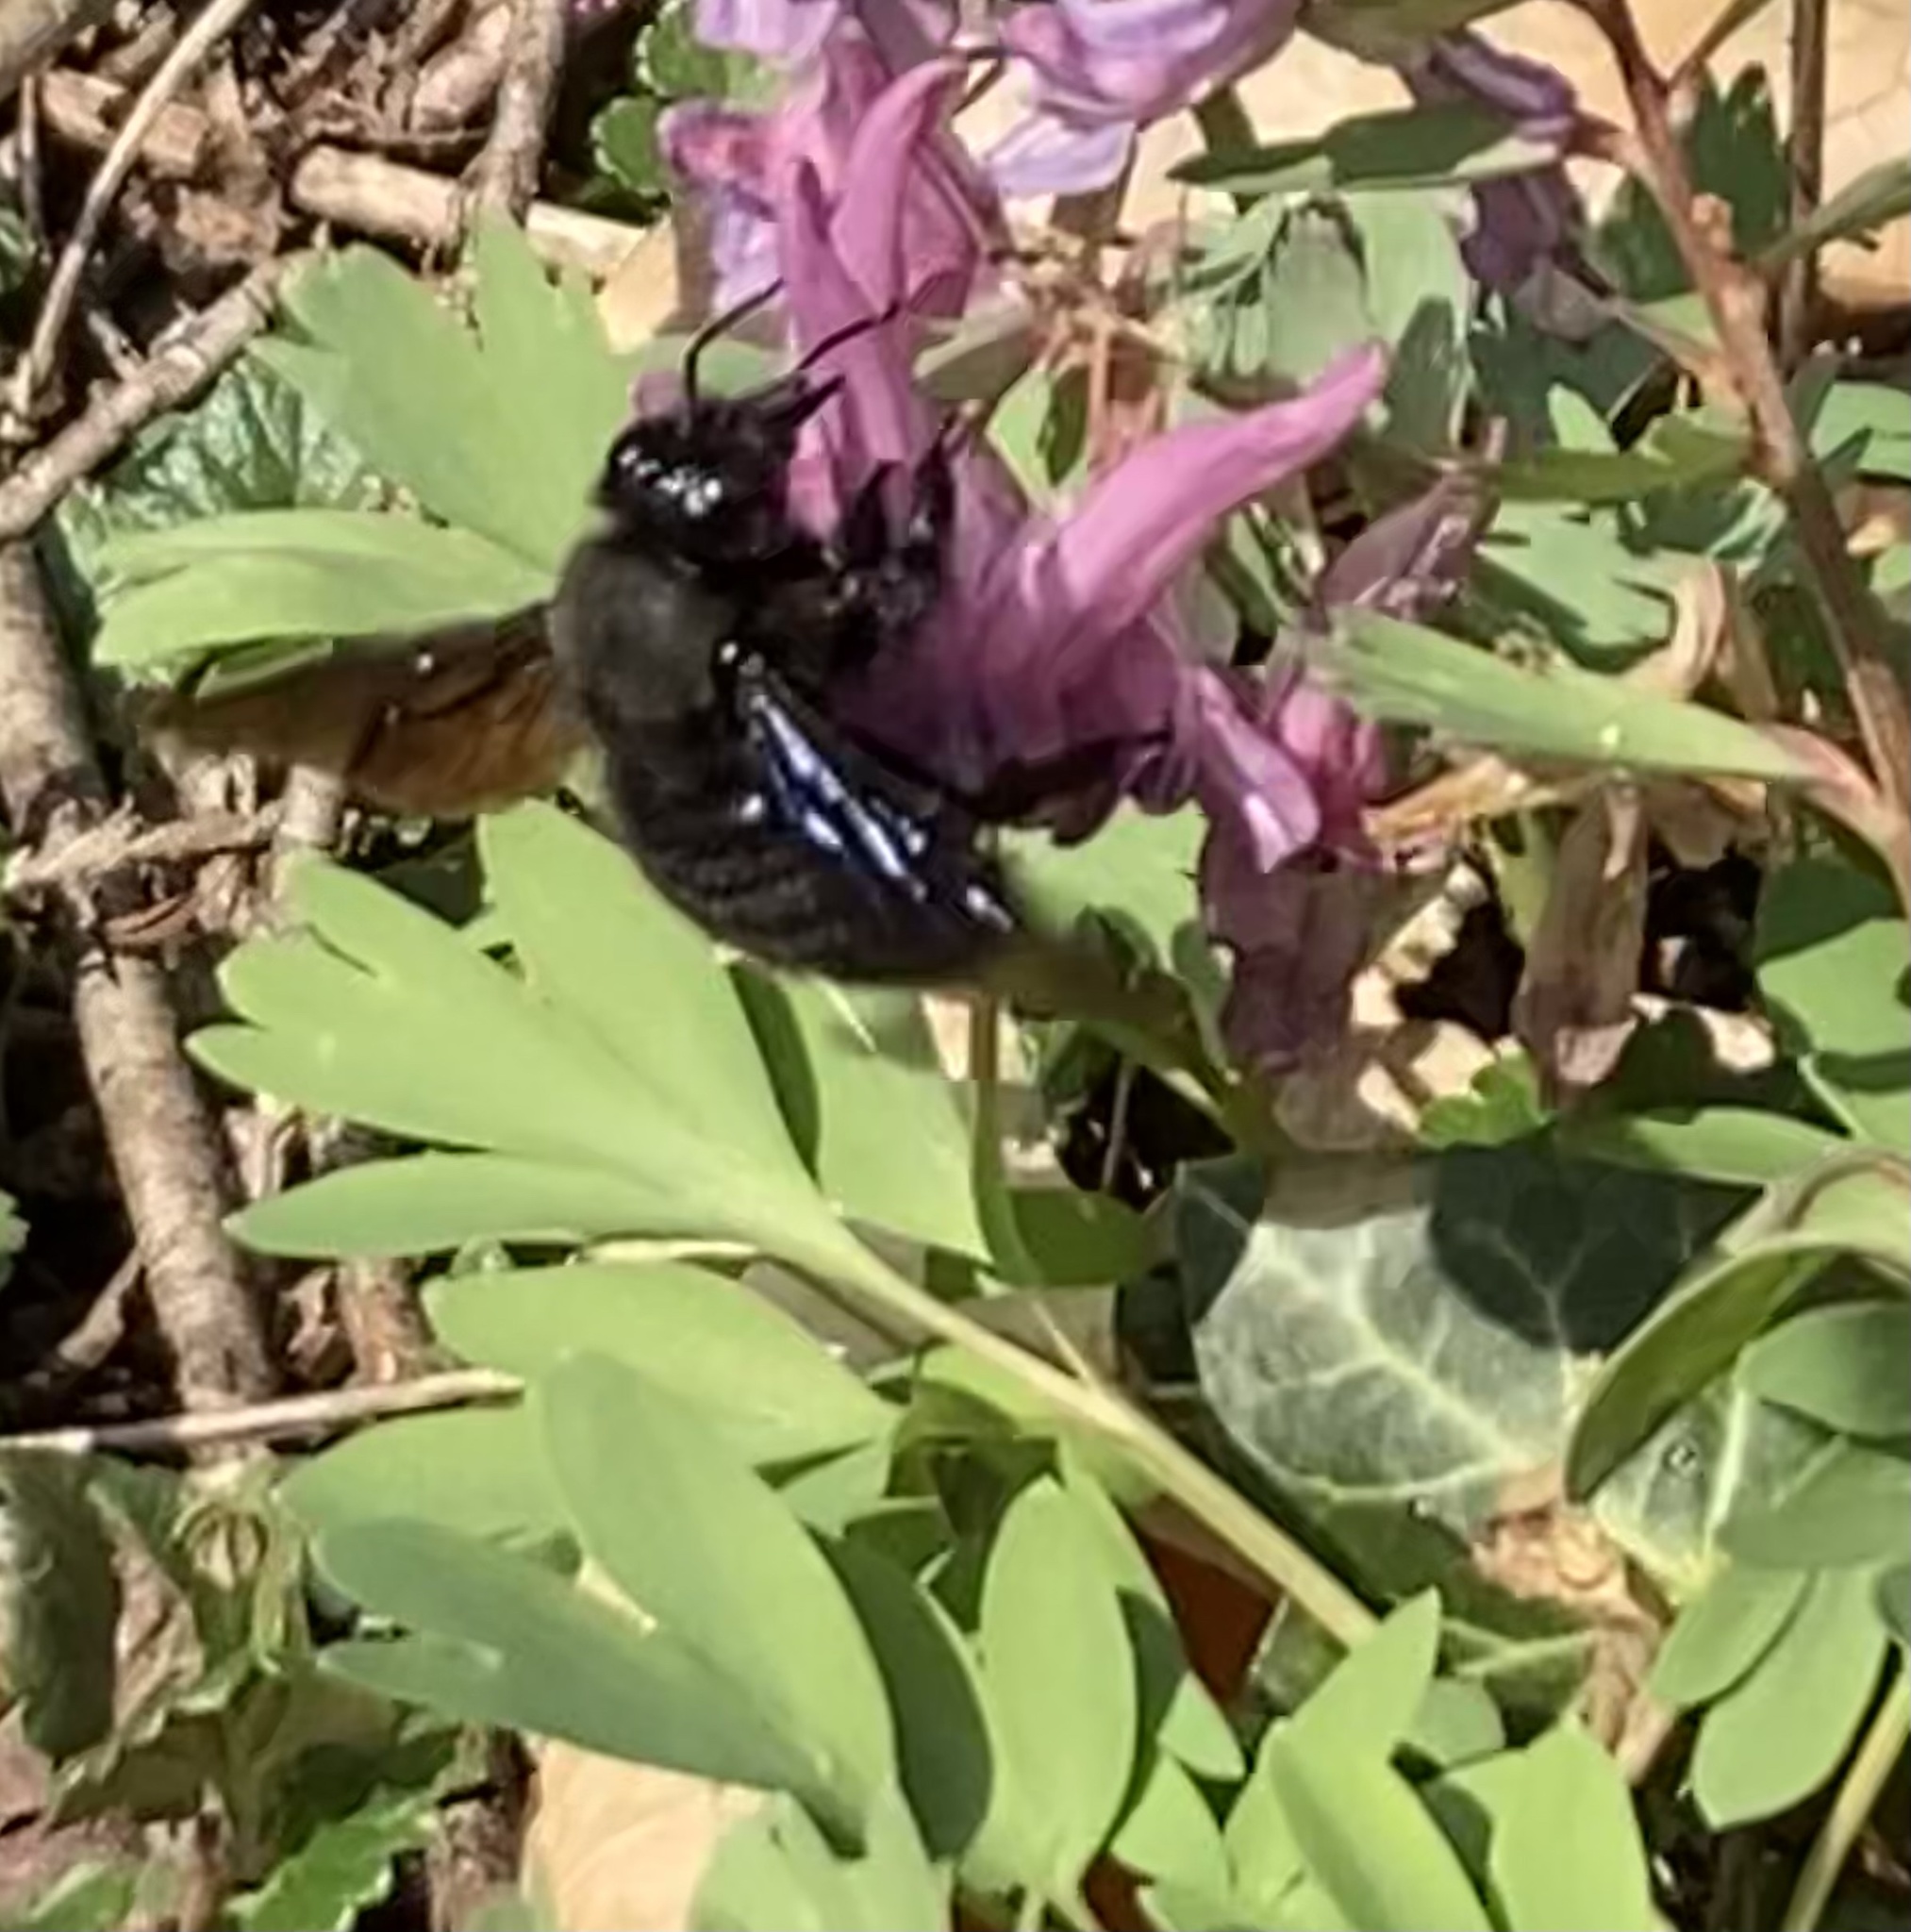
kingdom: Animalia
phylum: Arthropoda
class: Insecta
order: Hymenoptera
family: Apidae
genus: Xylocopa
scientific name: Xylocopa violacea
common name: Violet carpenter bee
